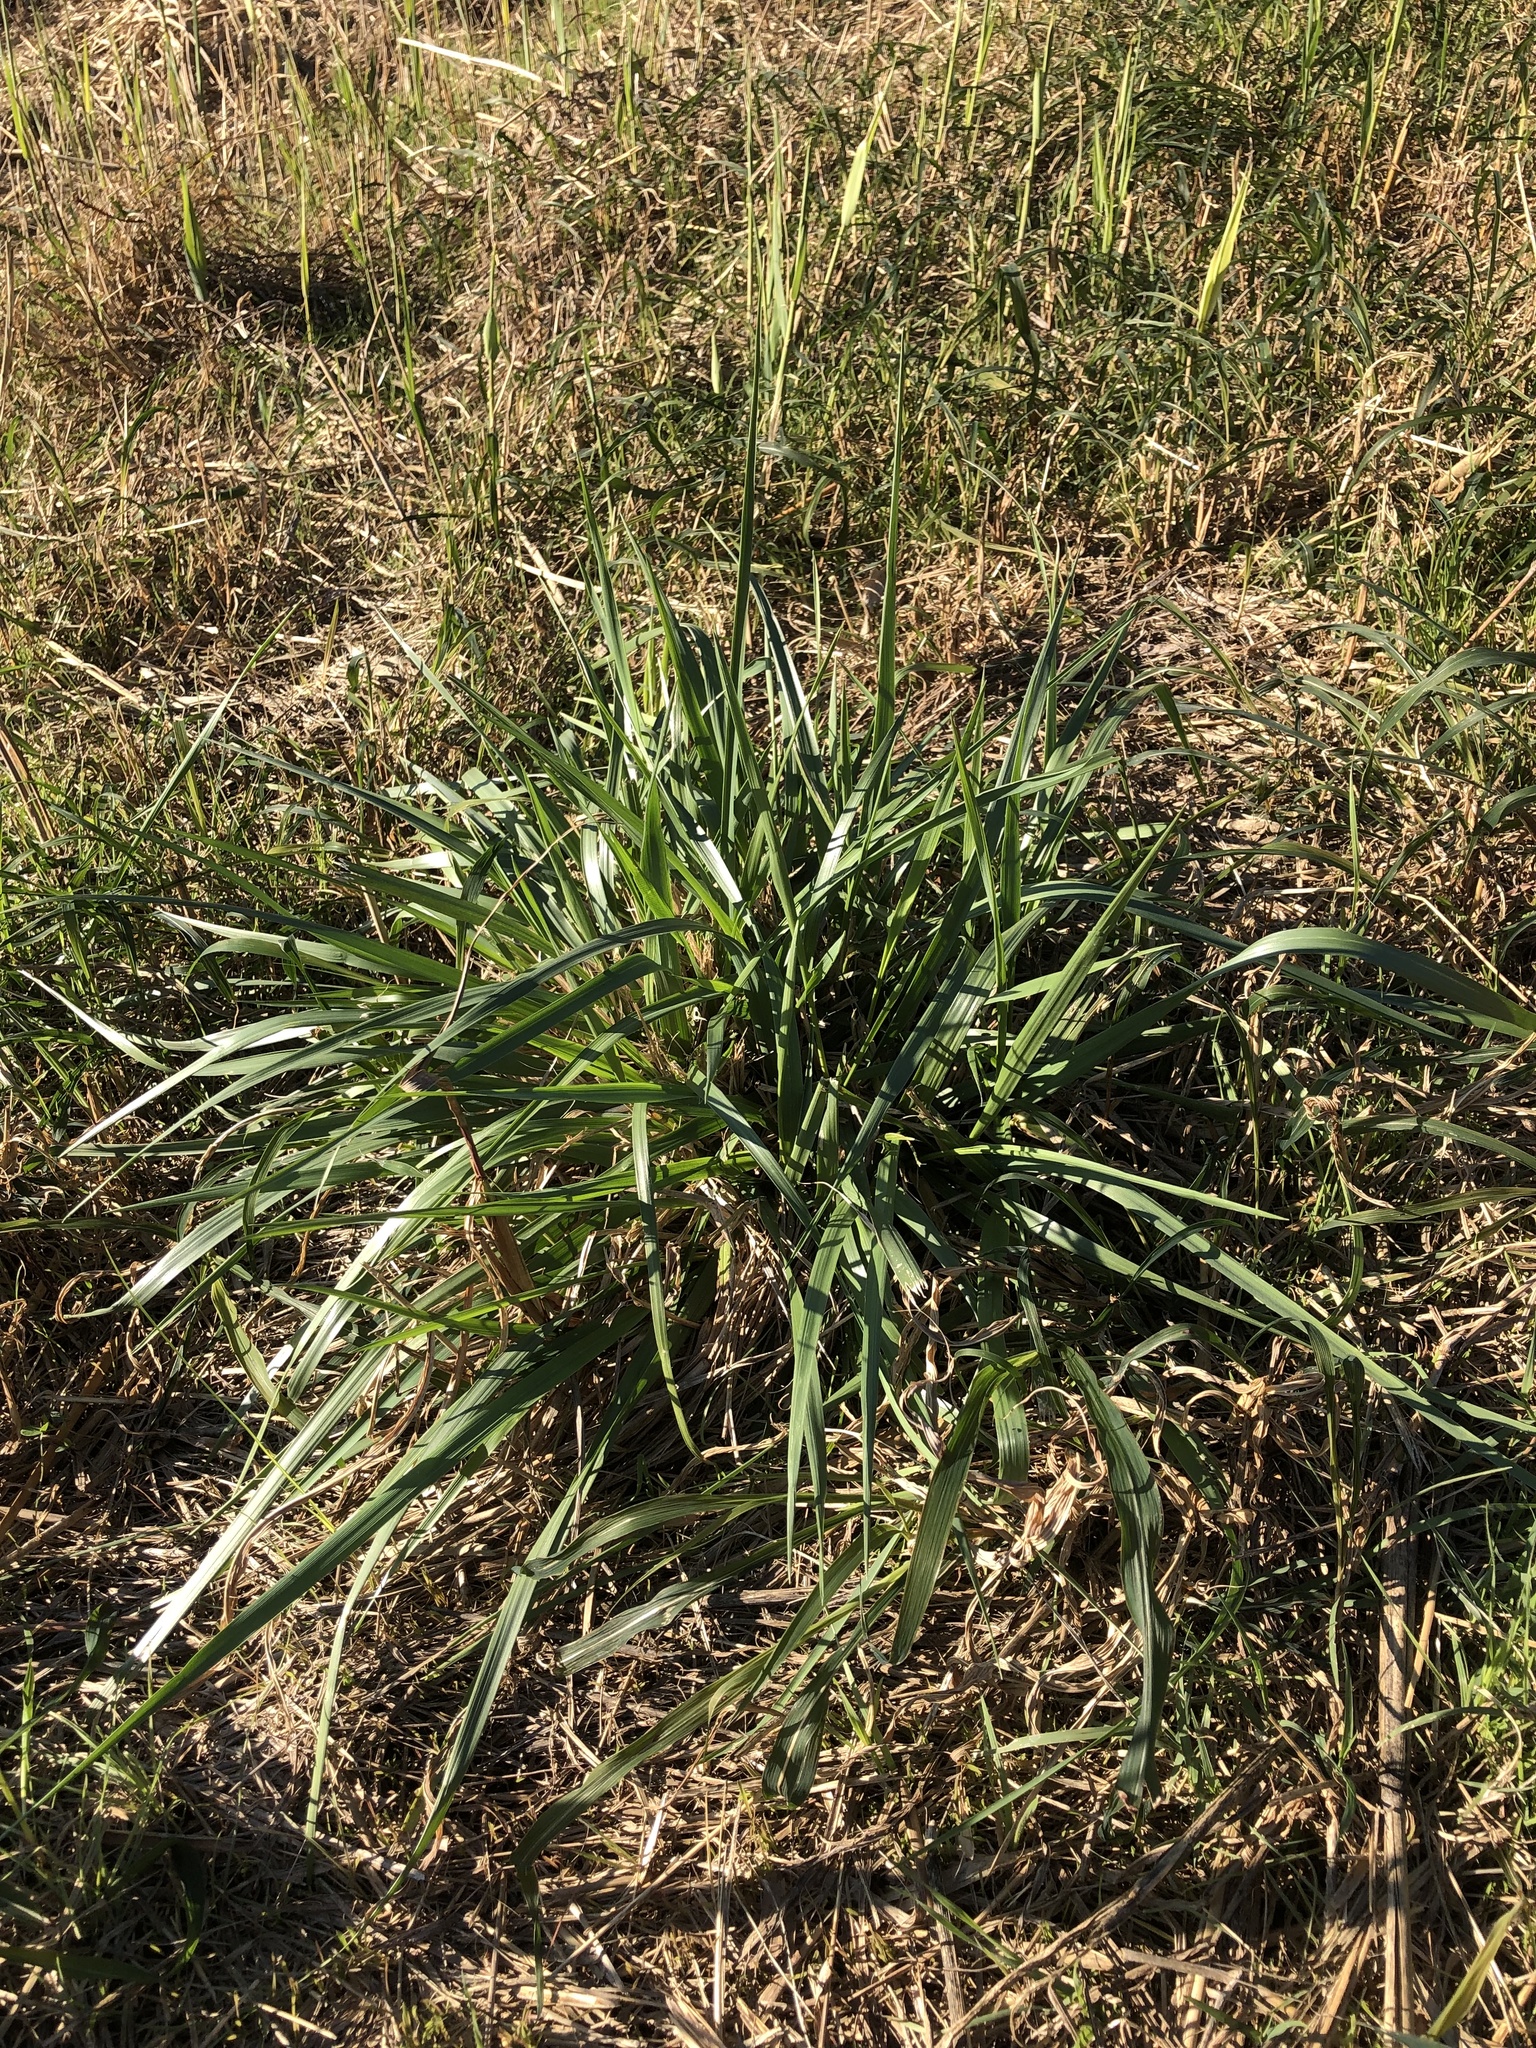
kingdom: Plantae
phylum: Tracheophyta
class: Liliopsida
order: Poales
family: Poaceae
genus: Sorghum
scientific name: Sorghum halepense
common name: Johnson-grass
